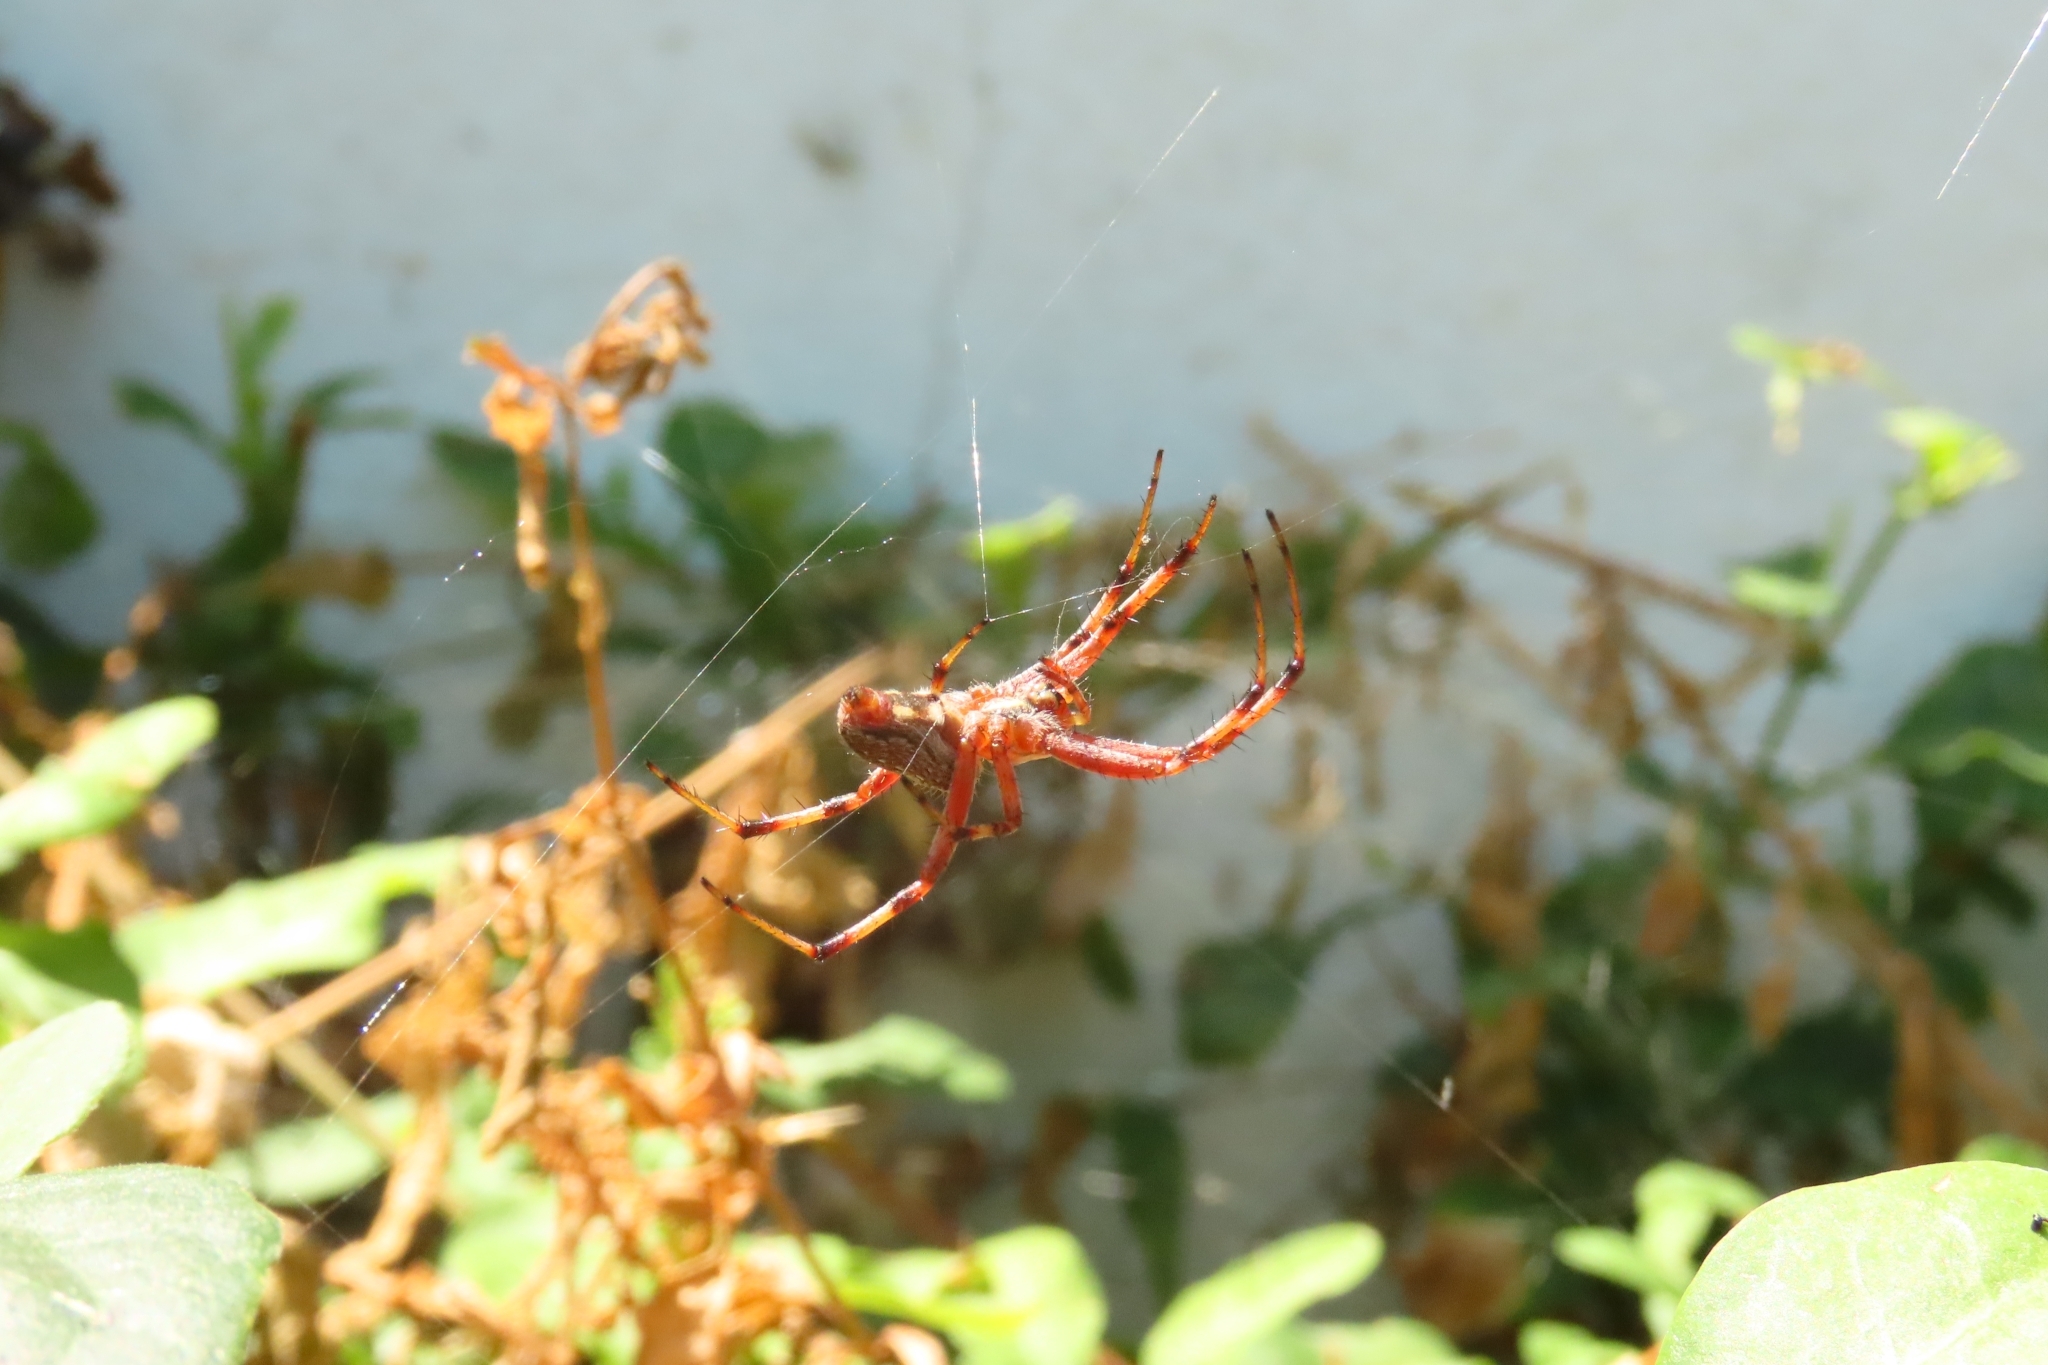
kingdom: Animalia
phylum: Arthropoda
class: Arachnida
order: Araneae
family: Araneidae
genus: Neoscona
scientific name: Neoscona oaxacensis
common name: Orb weavers
